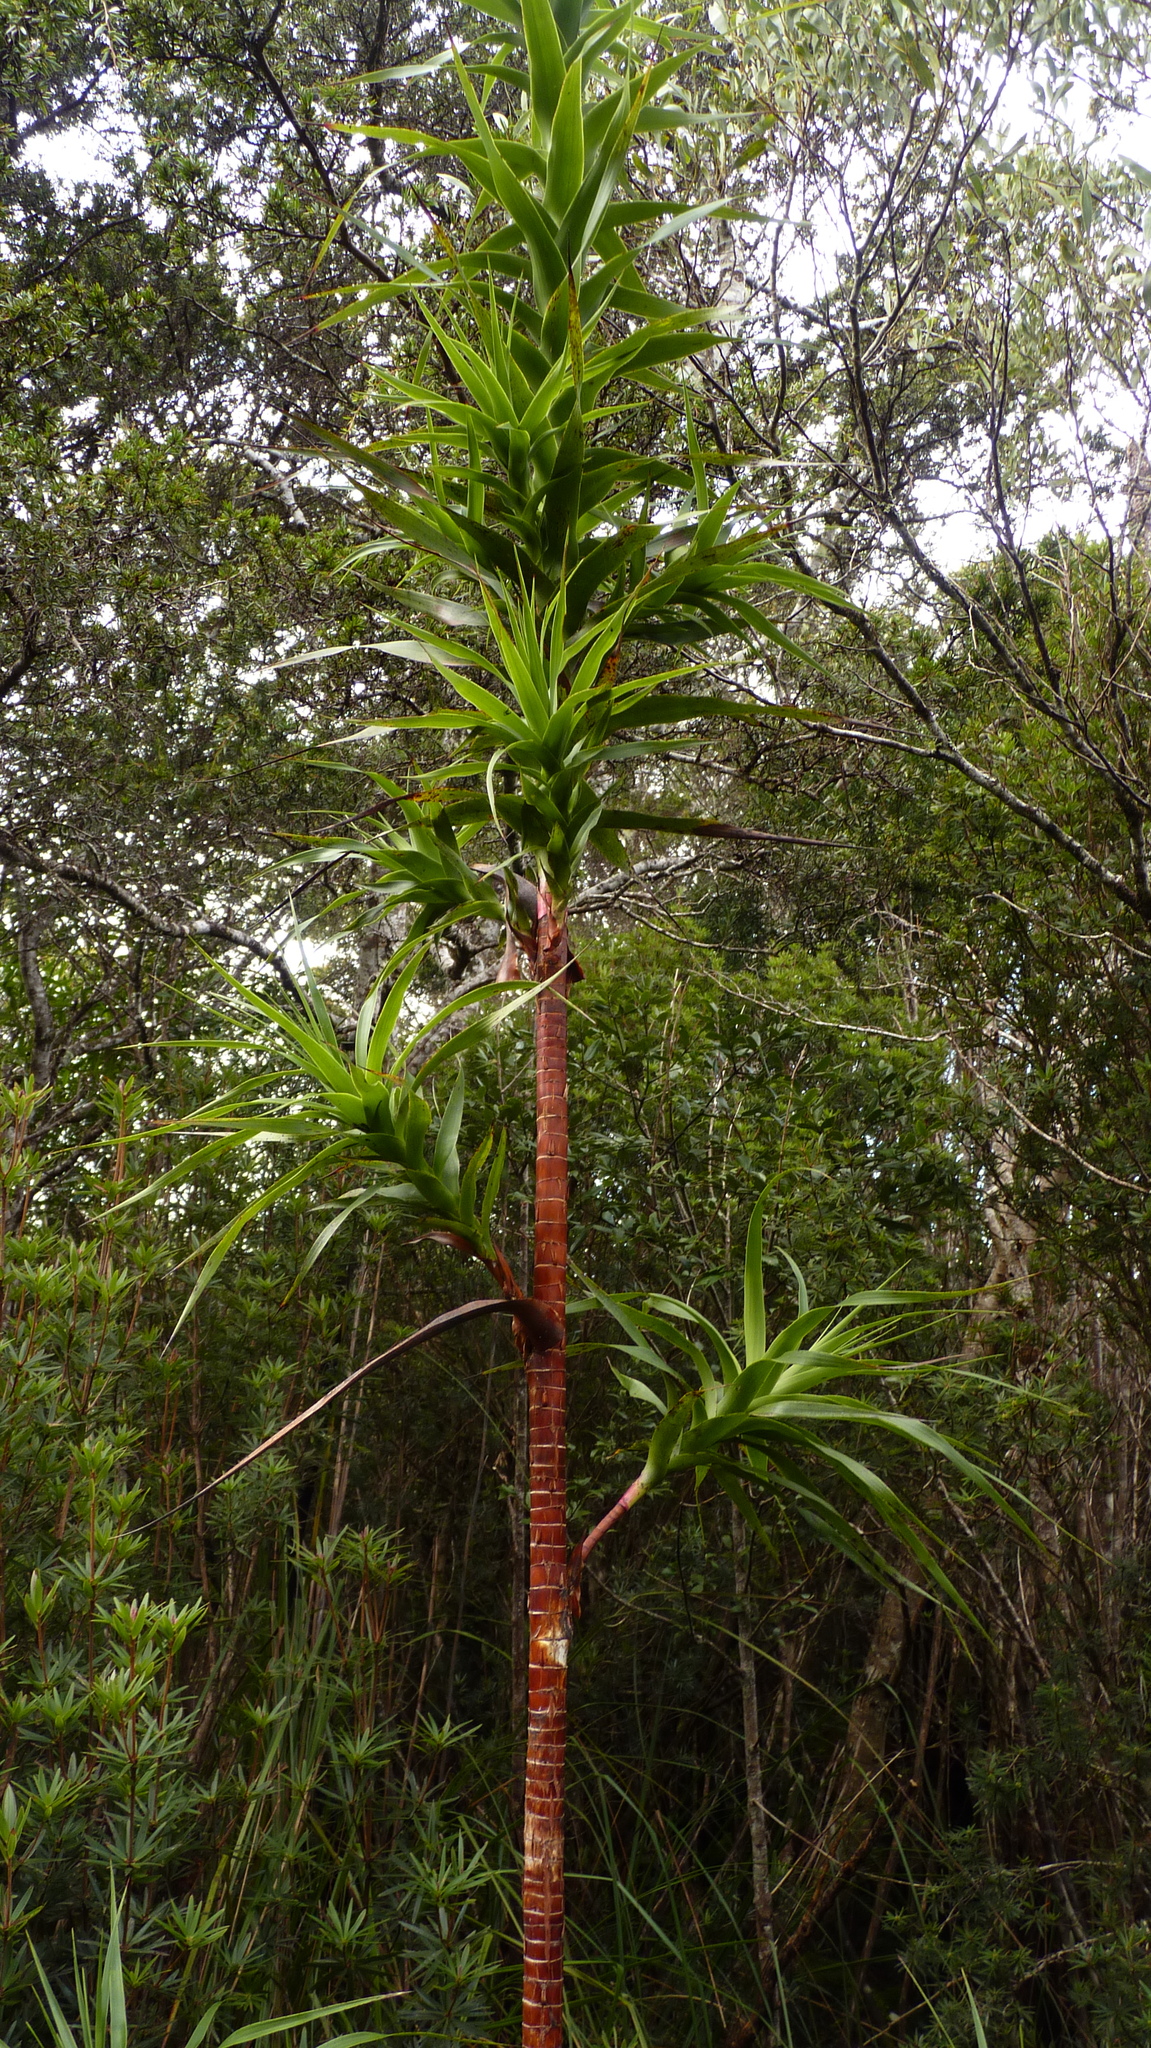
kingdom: Plantae
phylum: Tracheophyta
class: Magnoliopsida
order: Ericales
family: Ericaceae
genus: Dracophyllum
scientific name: Dracophyllum desgrazii
